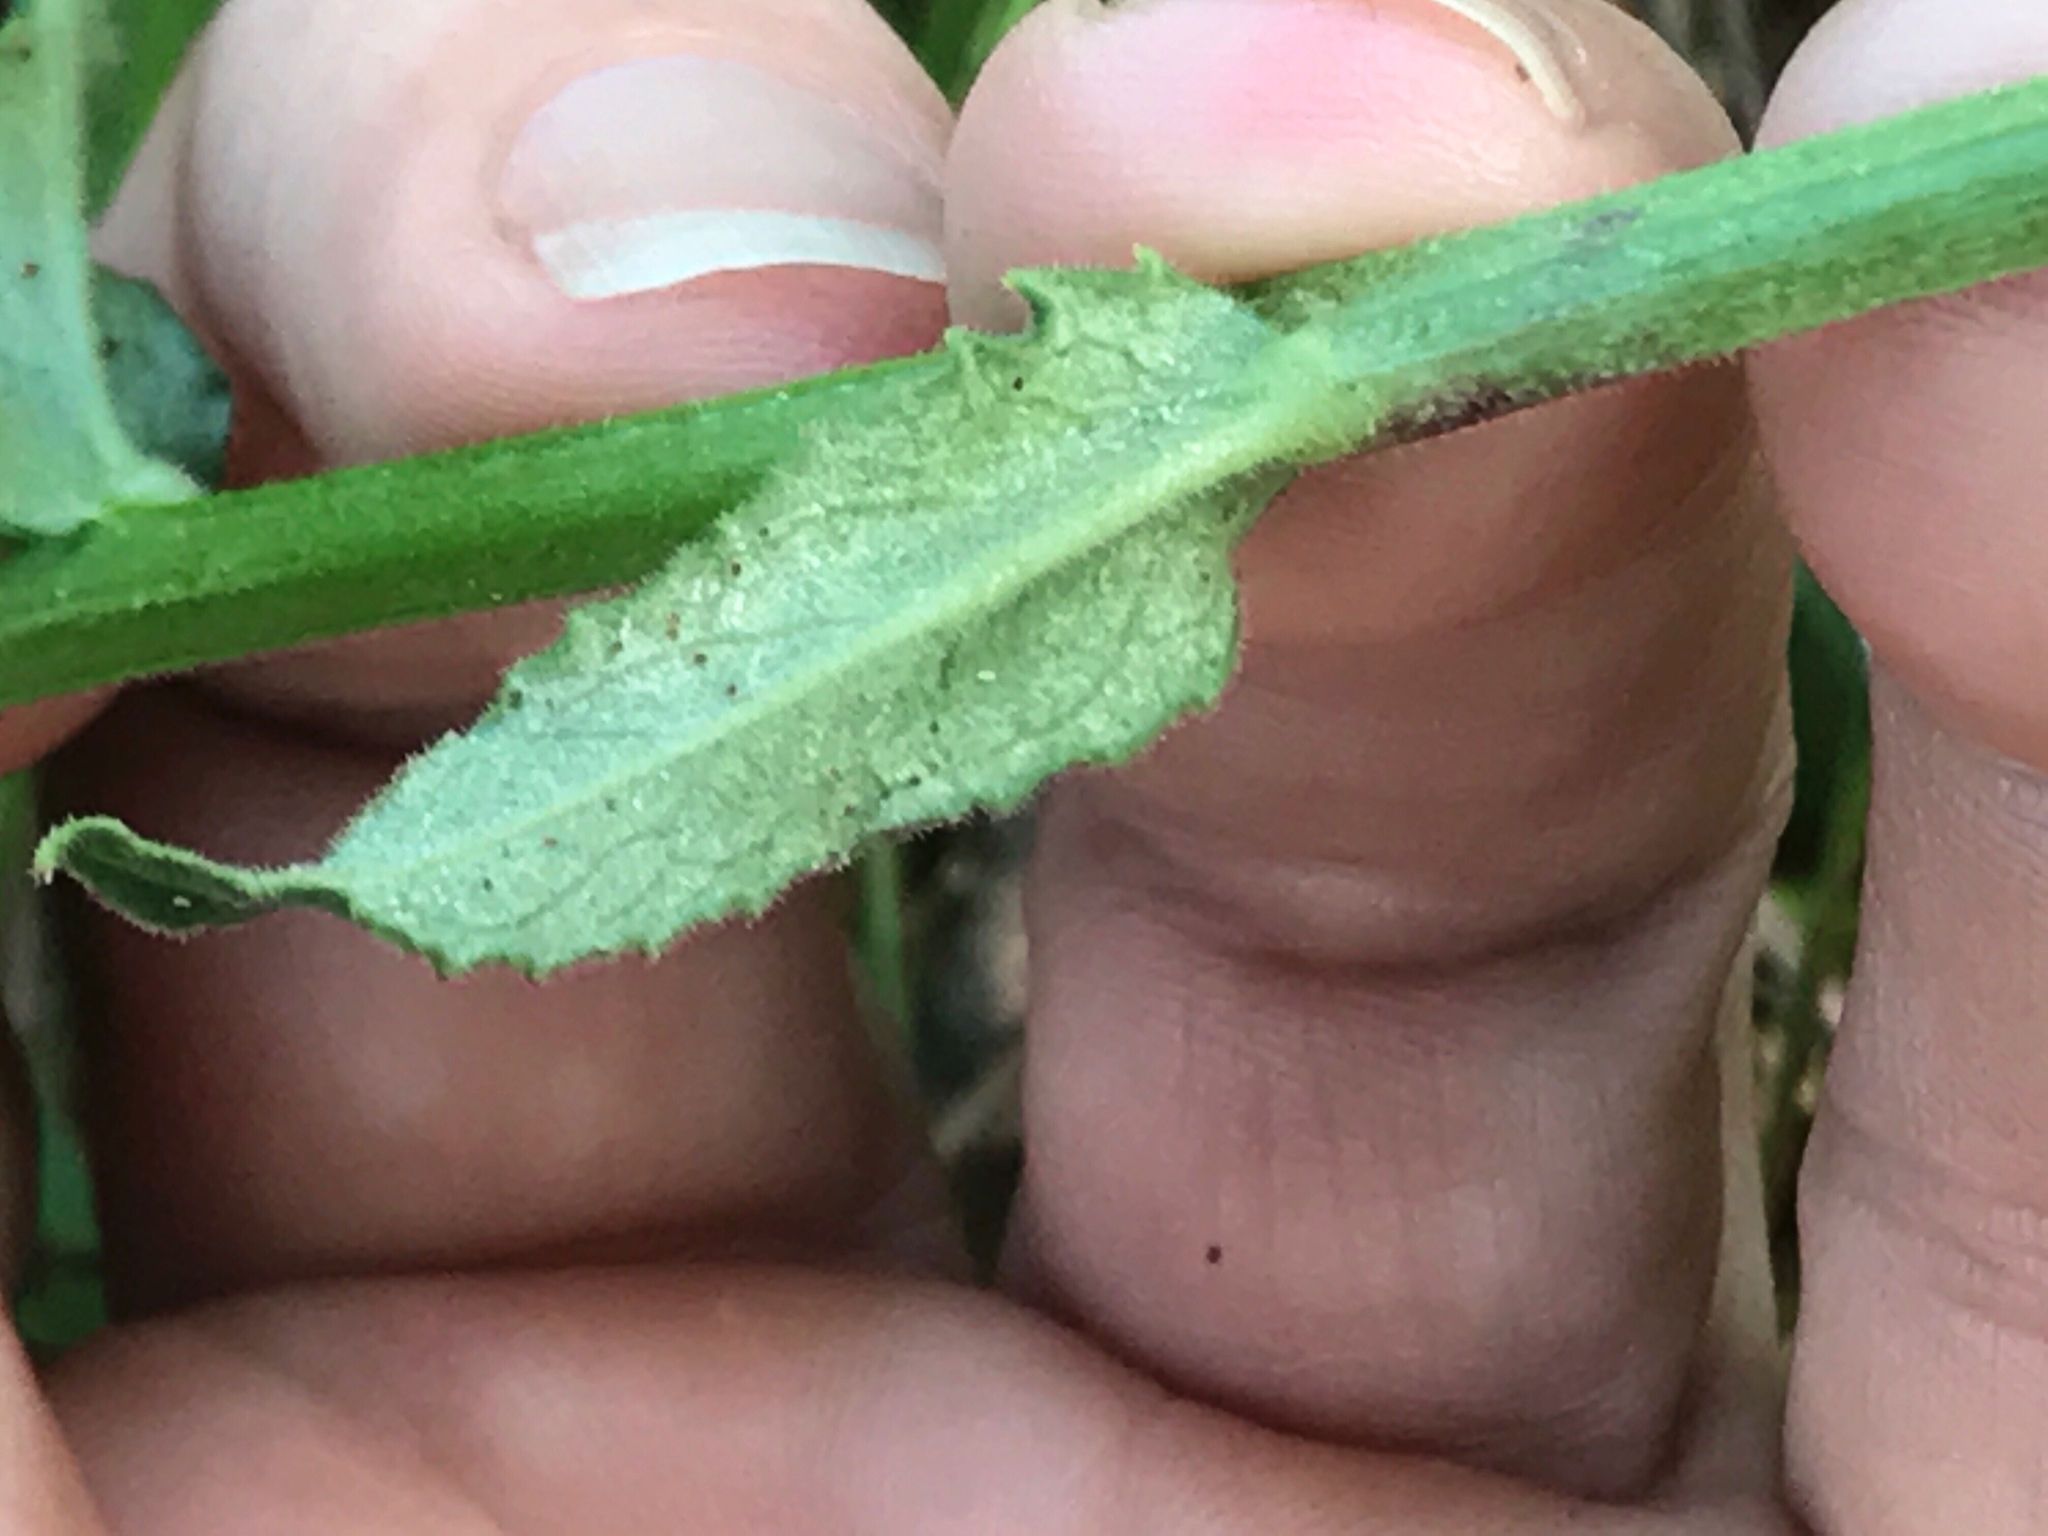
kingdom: Plantae
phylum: Tracheophyta
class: Magnoliopsida
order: Asterales
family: Campanulaceae
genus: Lobelia
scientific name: Lobelia puberula
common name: Purple dewdrop
